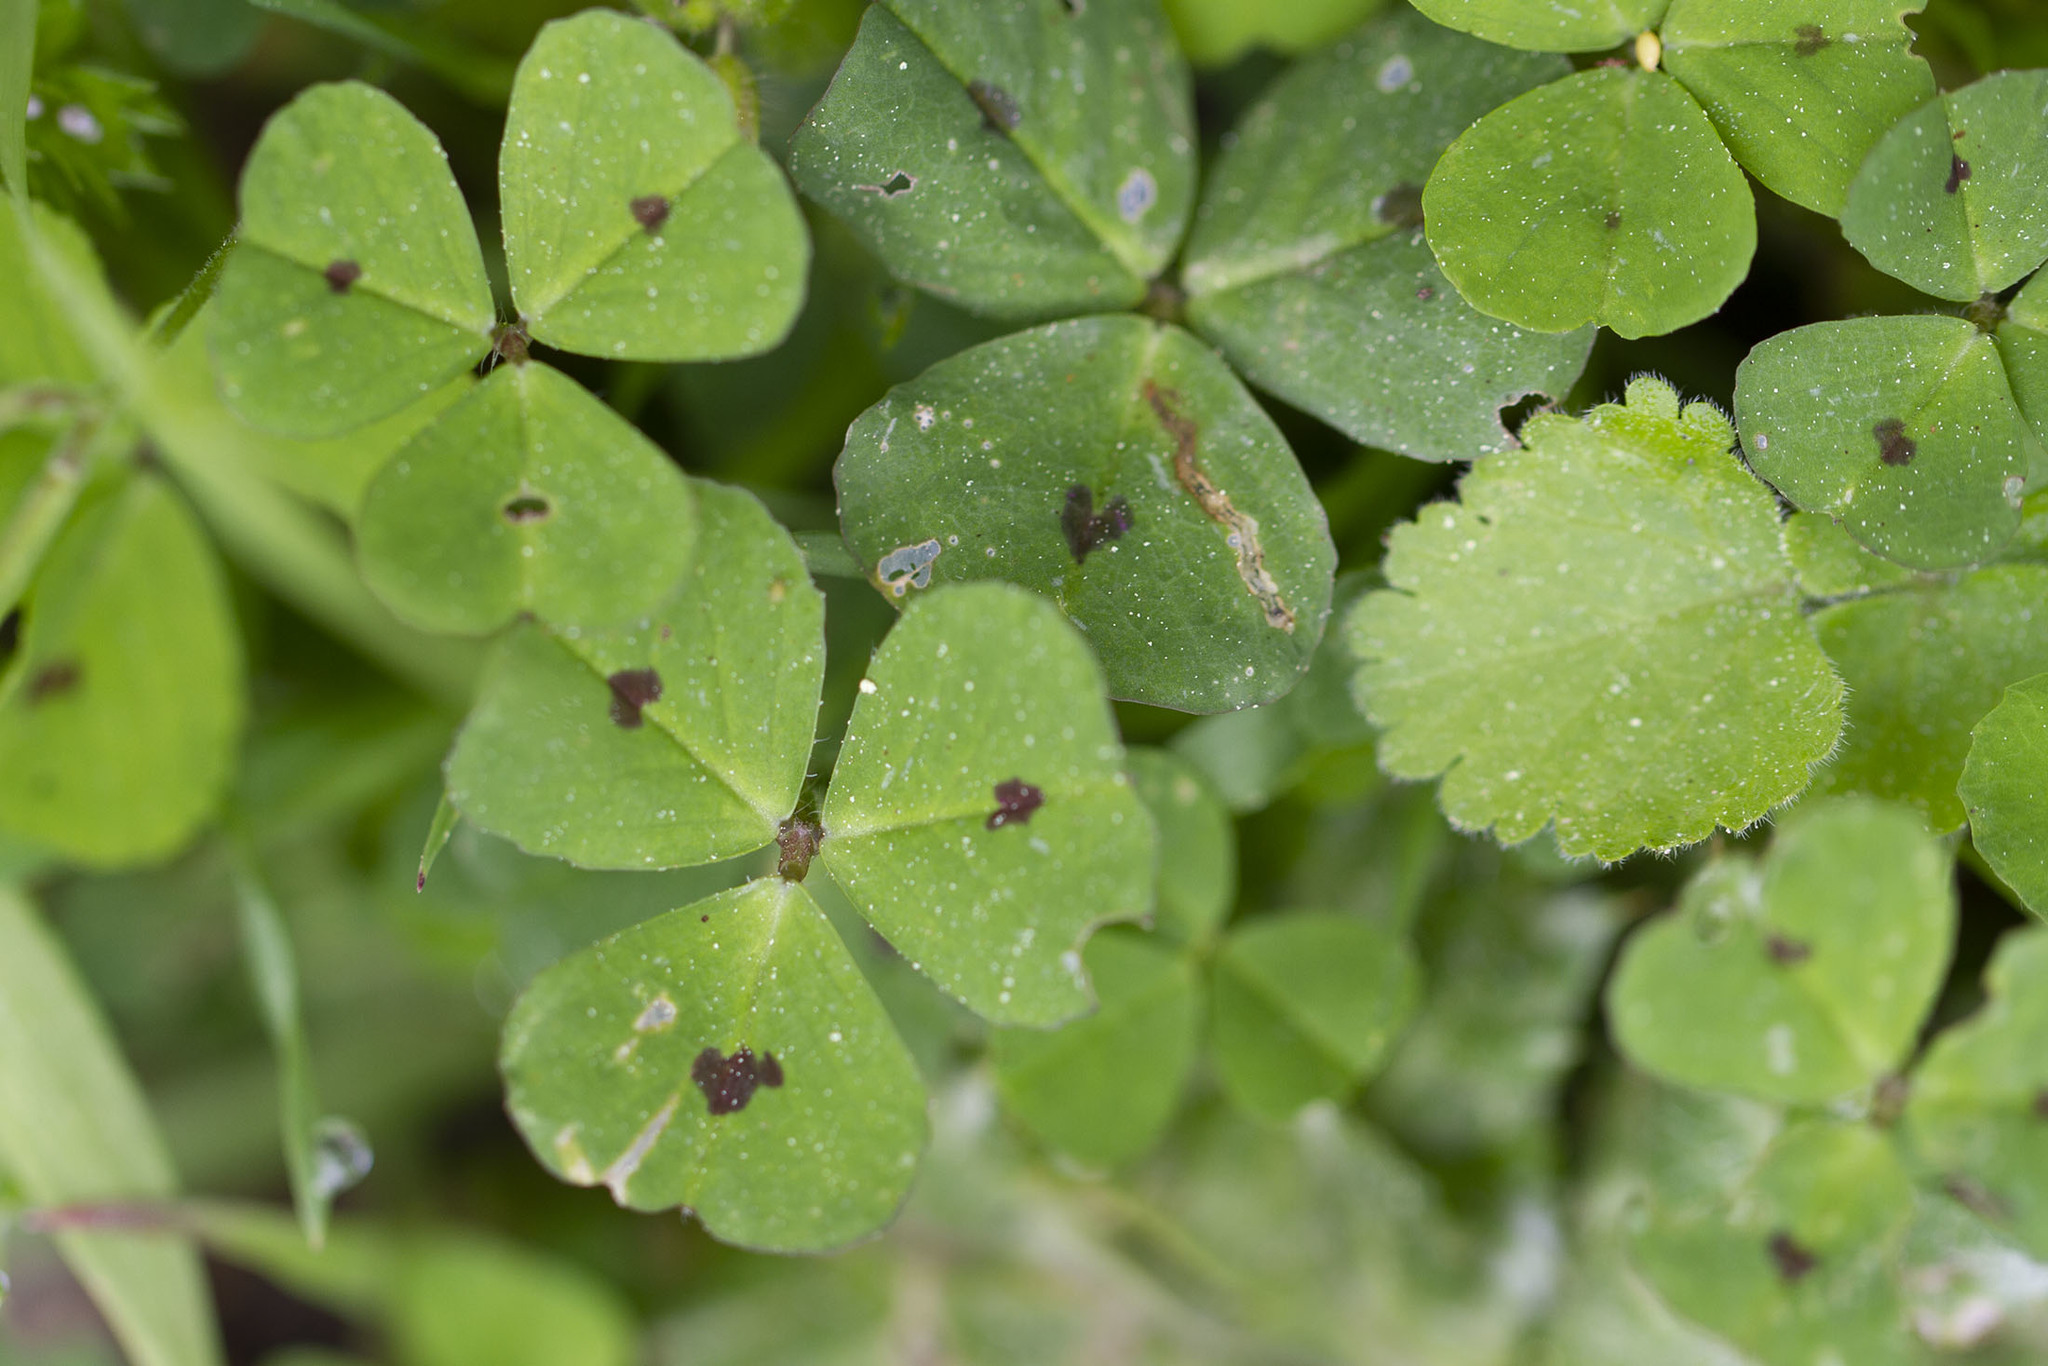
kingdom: Plantae
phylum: Tracheophyta
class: Magnoliopsida
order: Fabales
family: Fabaceae
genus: Medicago
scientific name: Medicago arabica
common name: Spotted medick
